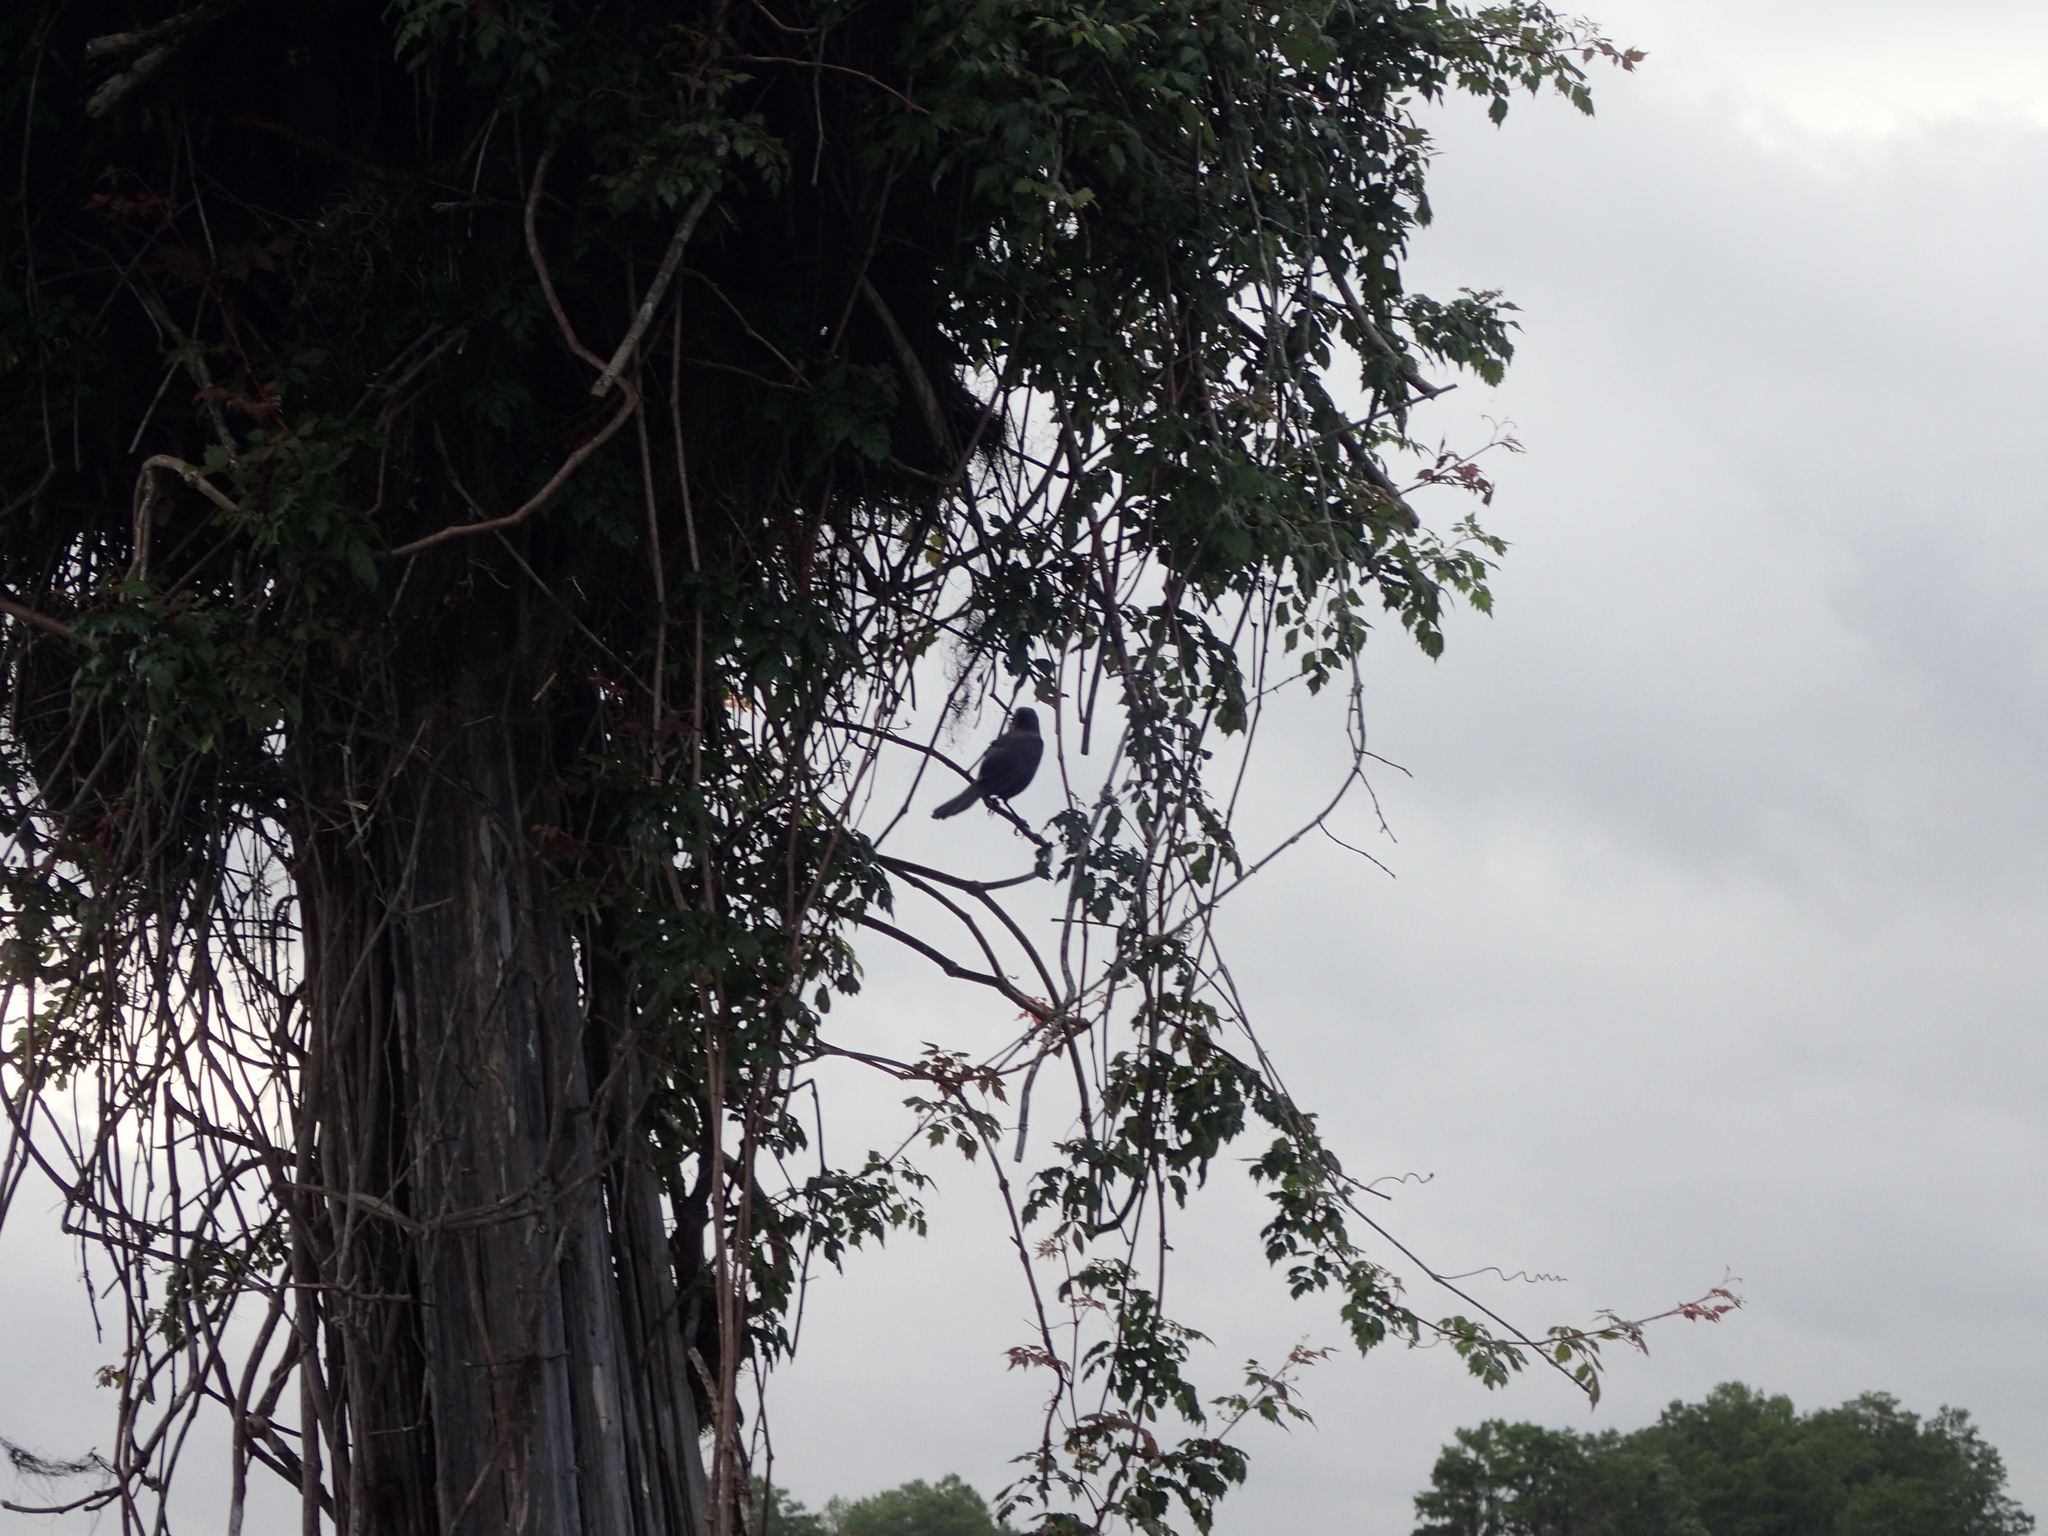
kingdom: Animalia
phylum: Chordata
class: Aves
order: Passeriformes
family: Icteridae
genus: Quiscalus
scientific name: Quiscalus quiscula
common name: Common grackle
